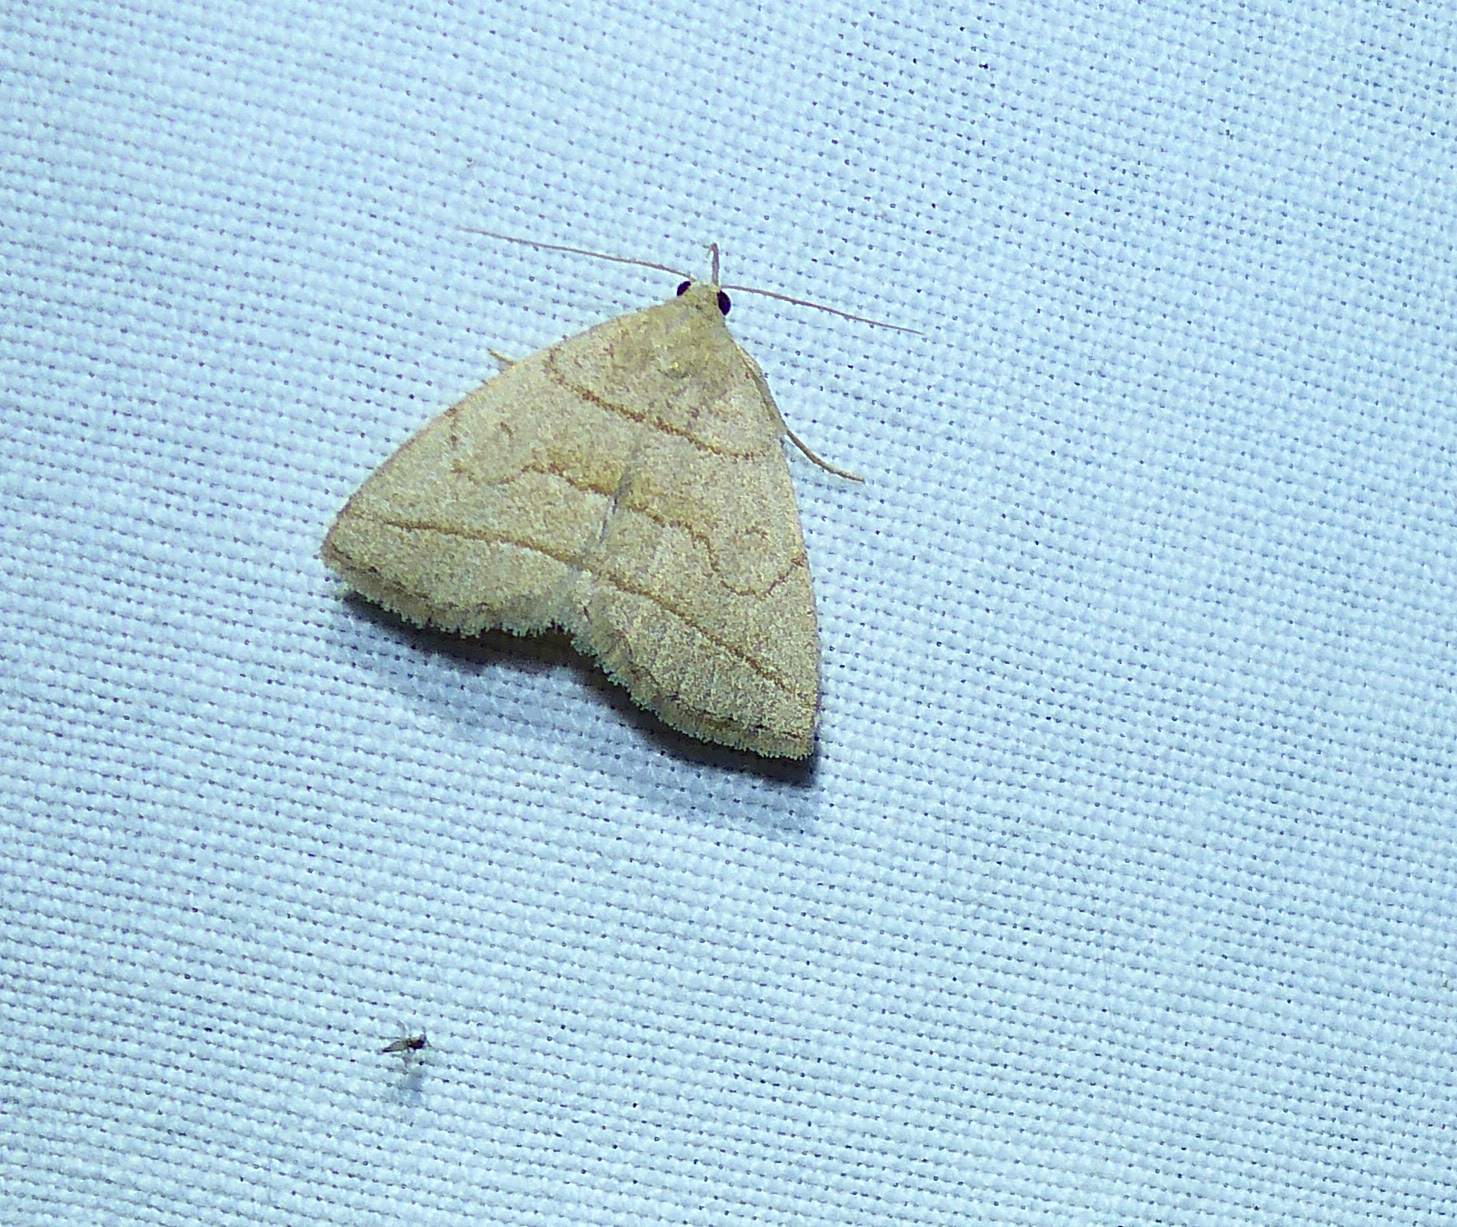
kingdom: Animalia
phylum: Arthropoda
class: Insecta
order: Lepidoptera
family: Erebidae
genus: Zanclognatha
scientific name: Zanclognatha cruralis
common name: Early fan-foot
